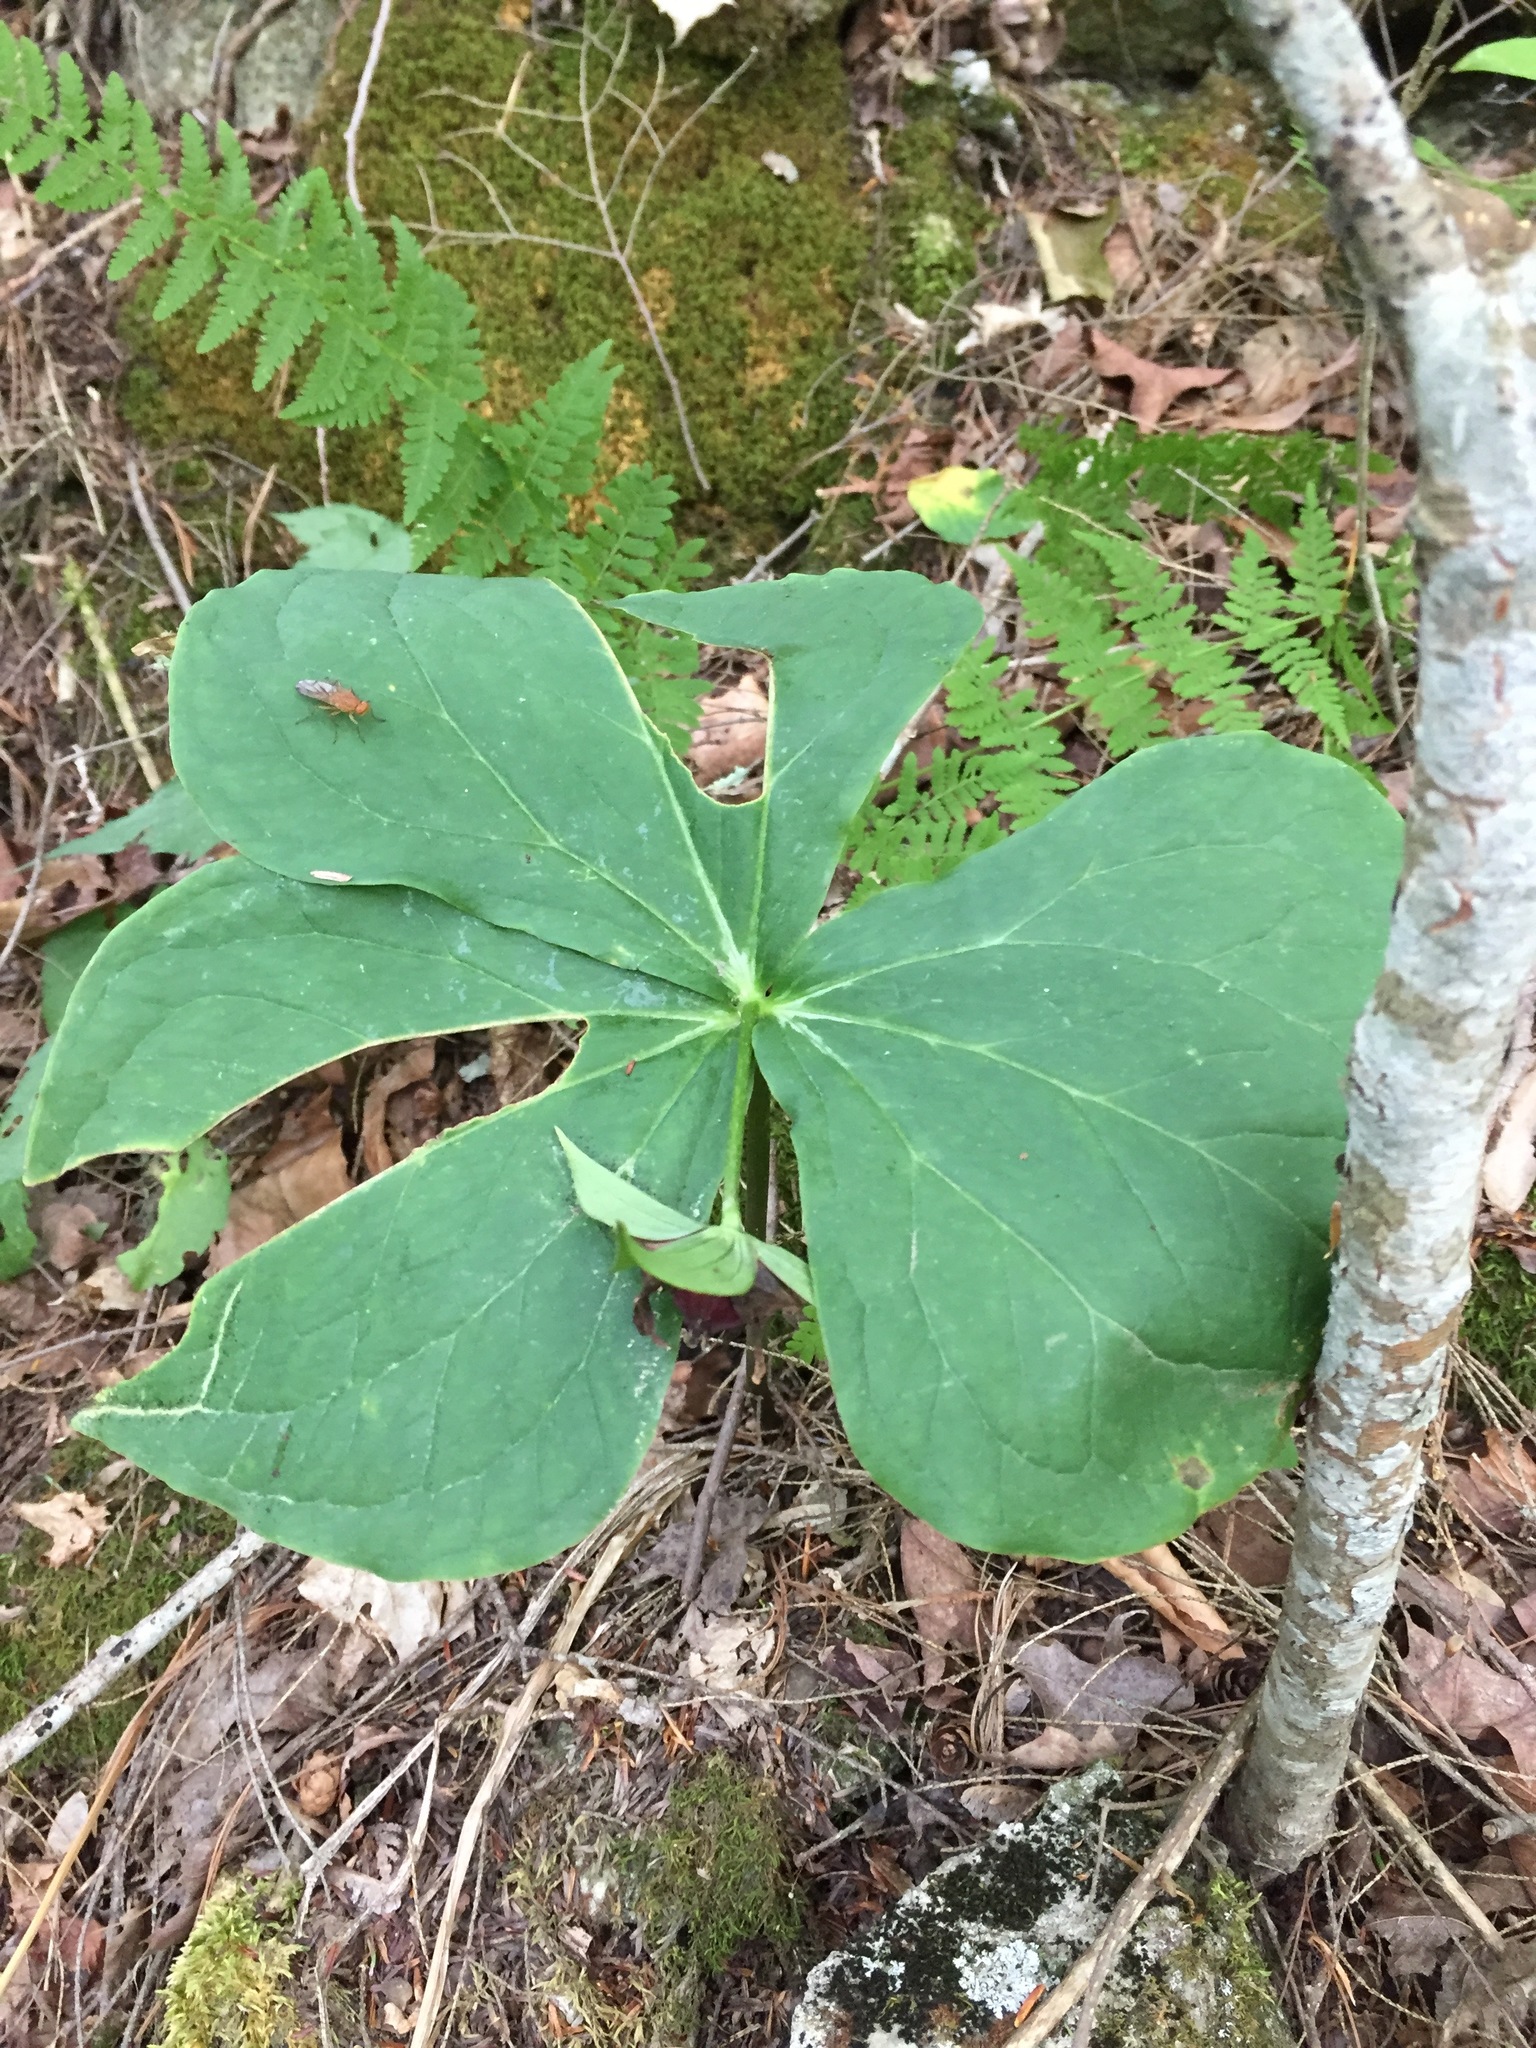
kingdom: Plantae
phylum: Tracheophyta
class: Liliopsida
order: Liliales
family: Melanthiaceae
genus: Trillium
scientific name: Trillium erectum
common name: Purple trillium
